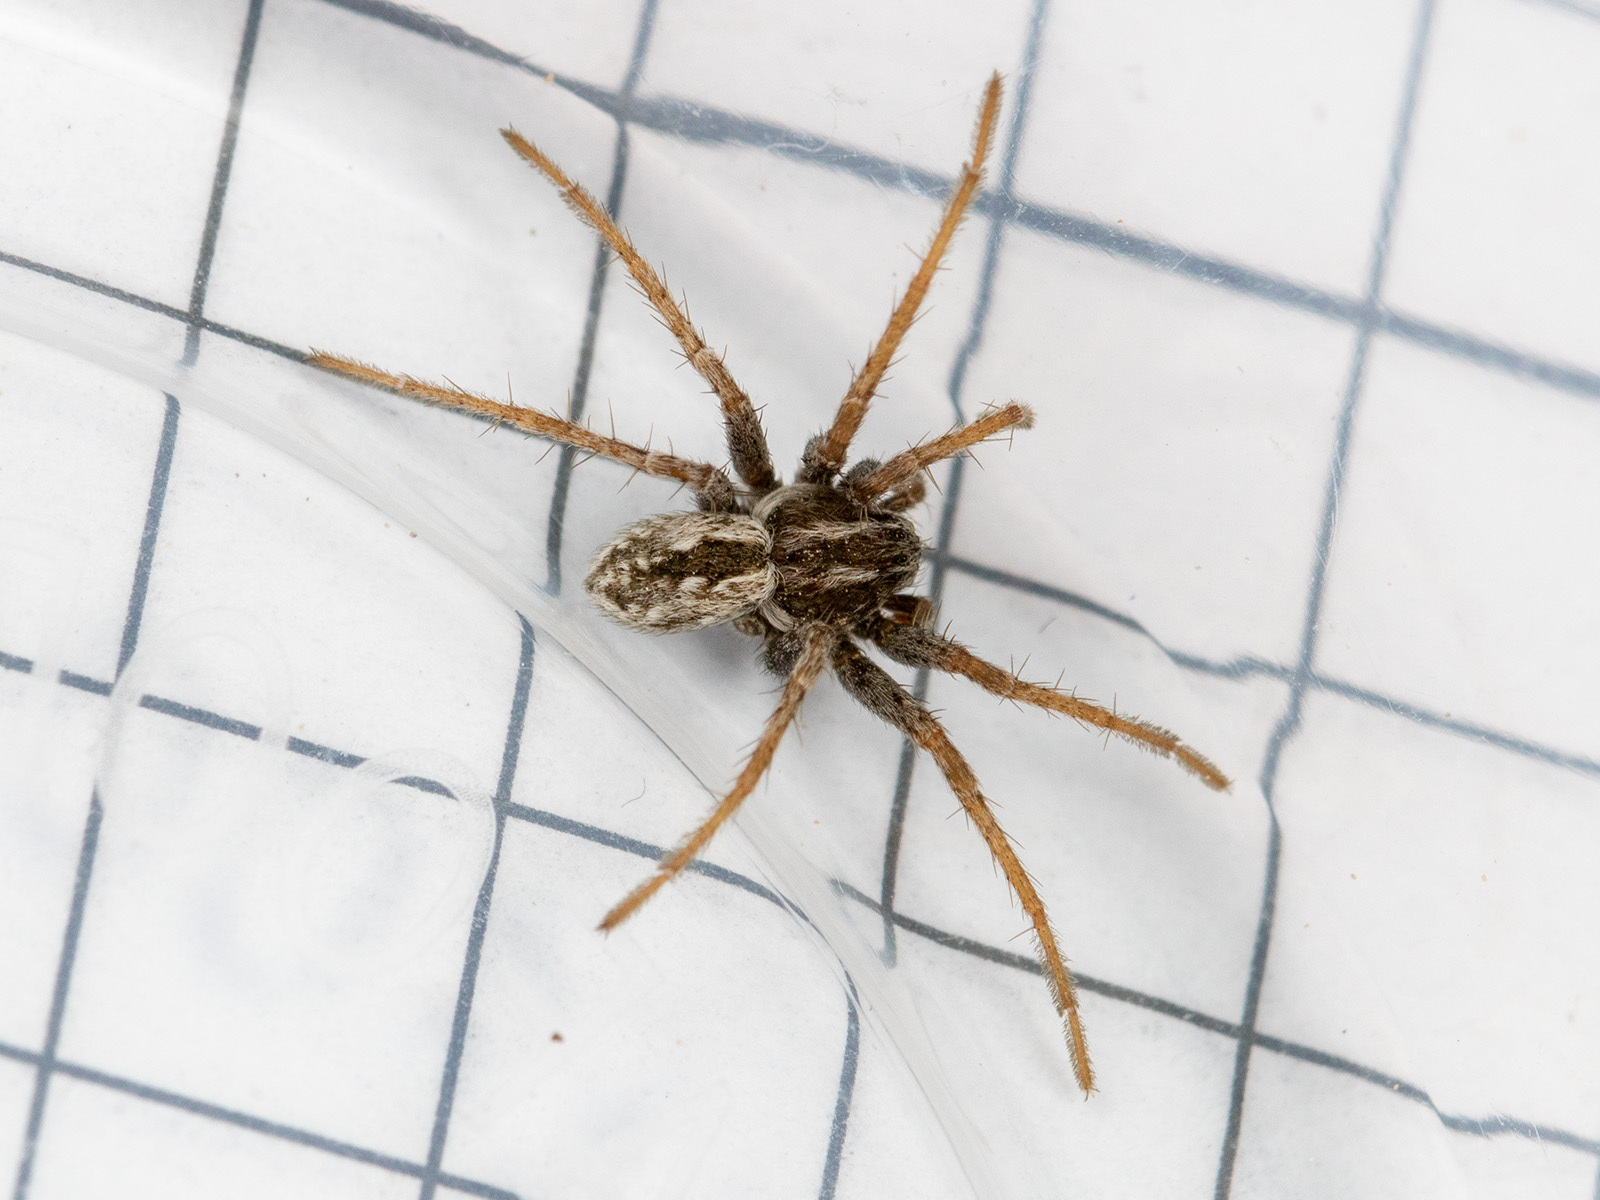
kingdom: Animalia
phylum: Arthropoda
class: Arachnida
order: Araneae
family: Philodromidae
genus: Thanatus
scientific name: Thanatus mikhailovi
